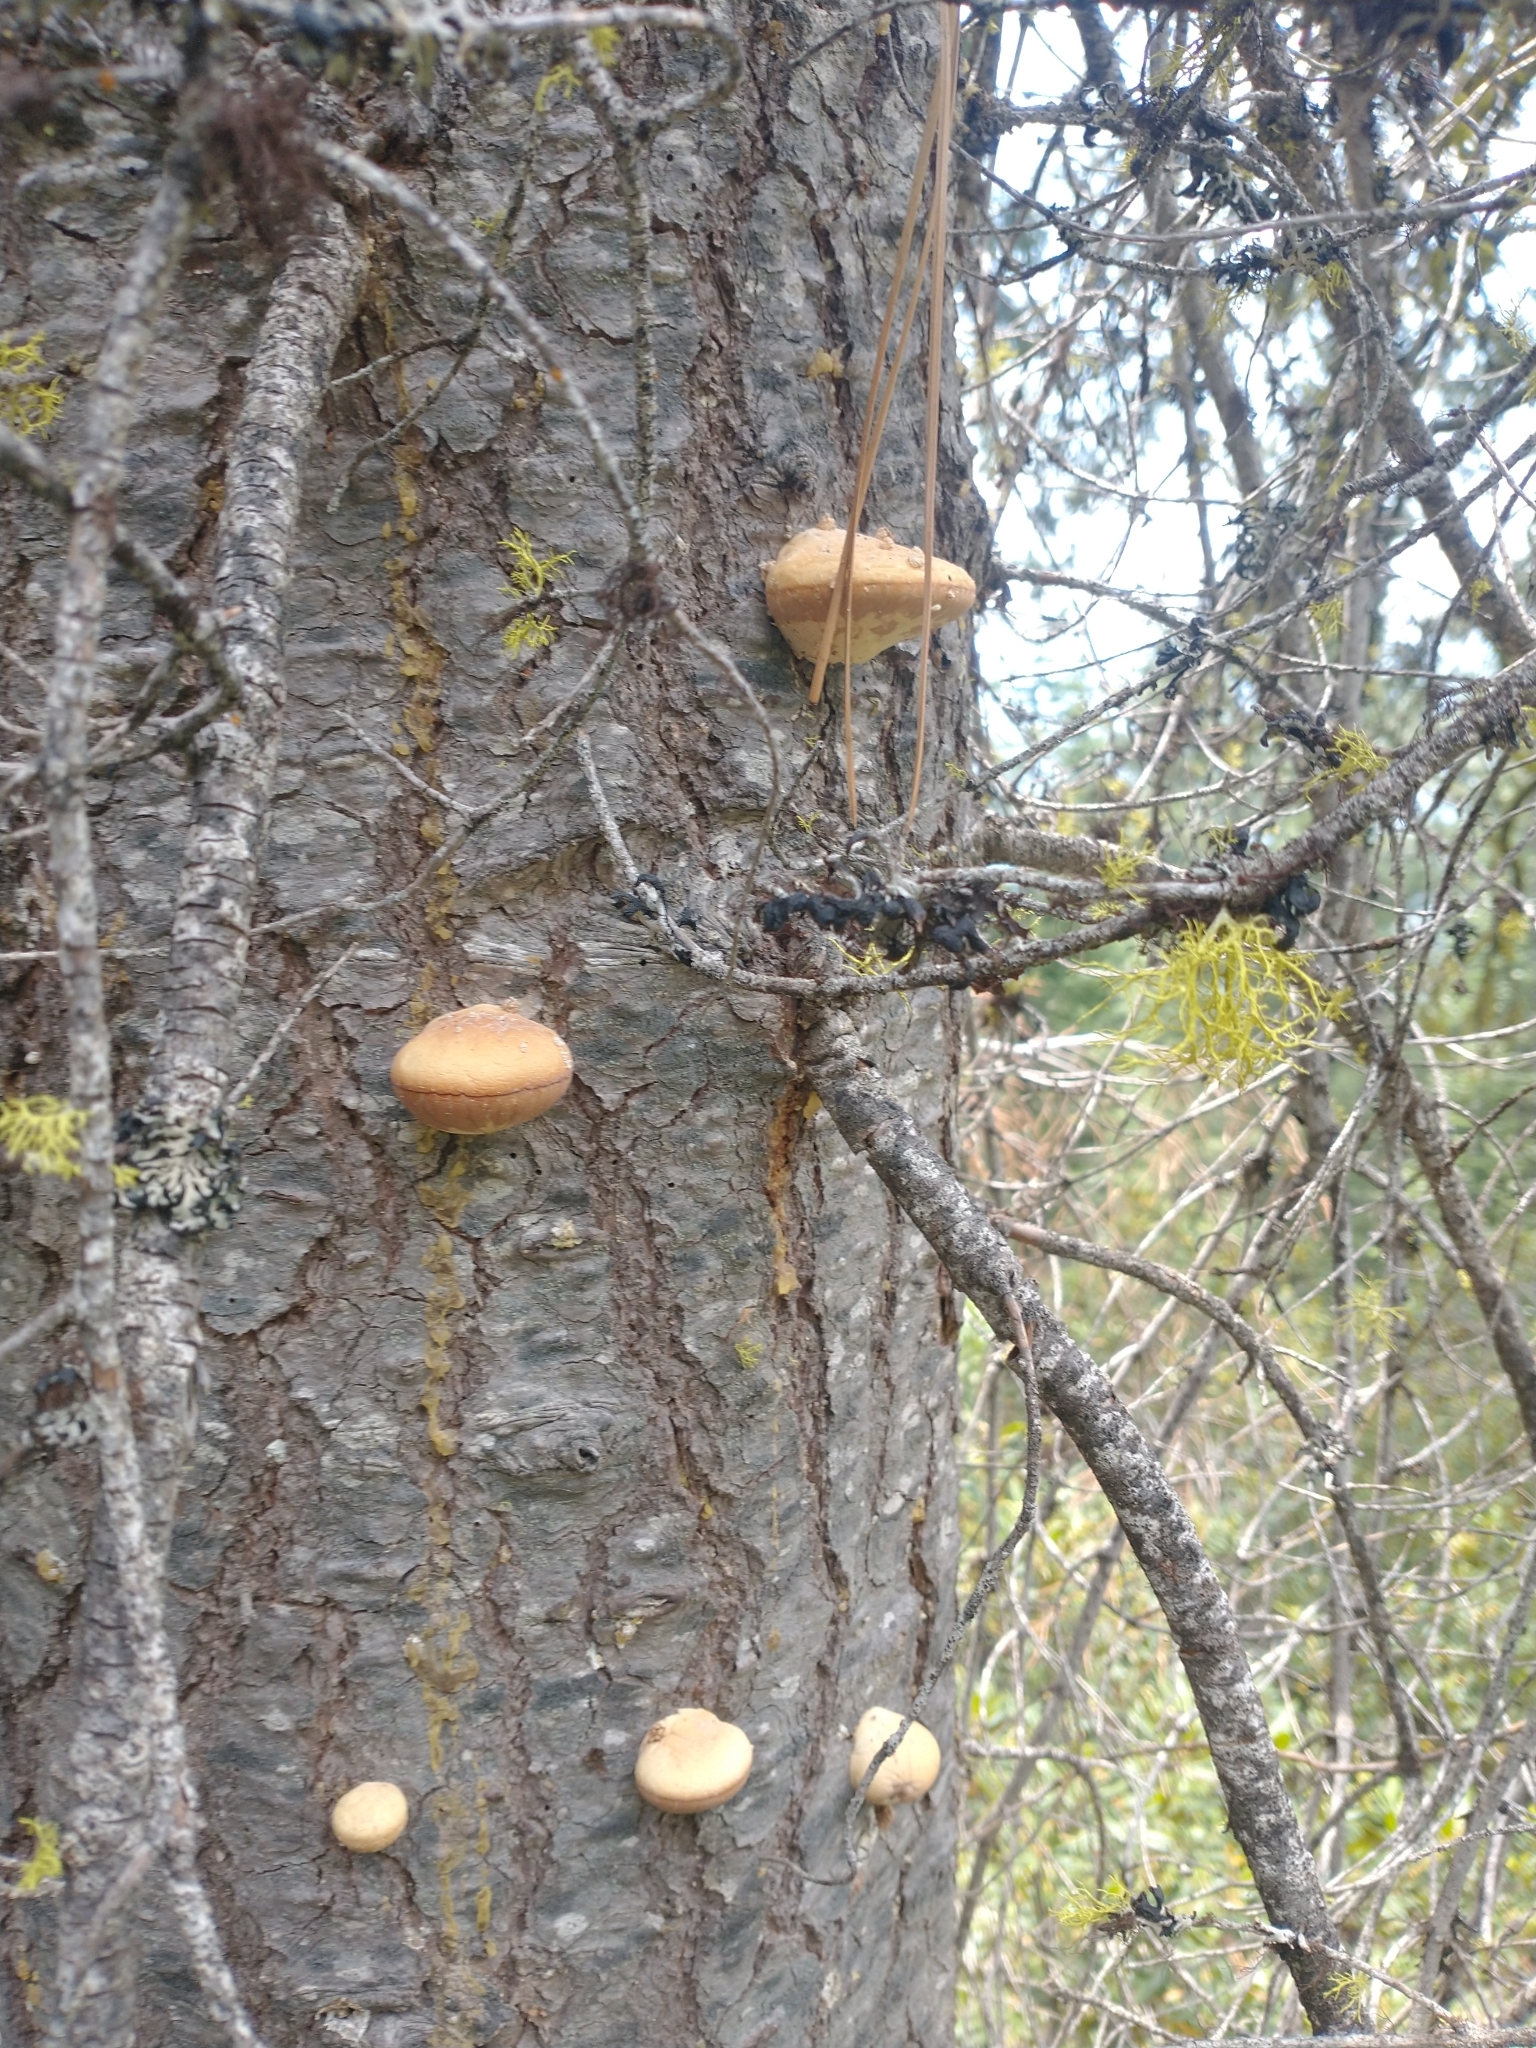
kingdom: Fungi
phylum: Basidiomycota
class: Agaricomycetes
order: Polyporales
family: Polyporaceae
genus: Cryptoporus
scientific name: Cryptoporus volvatus
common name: Veiled polypore
